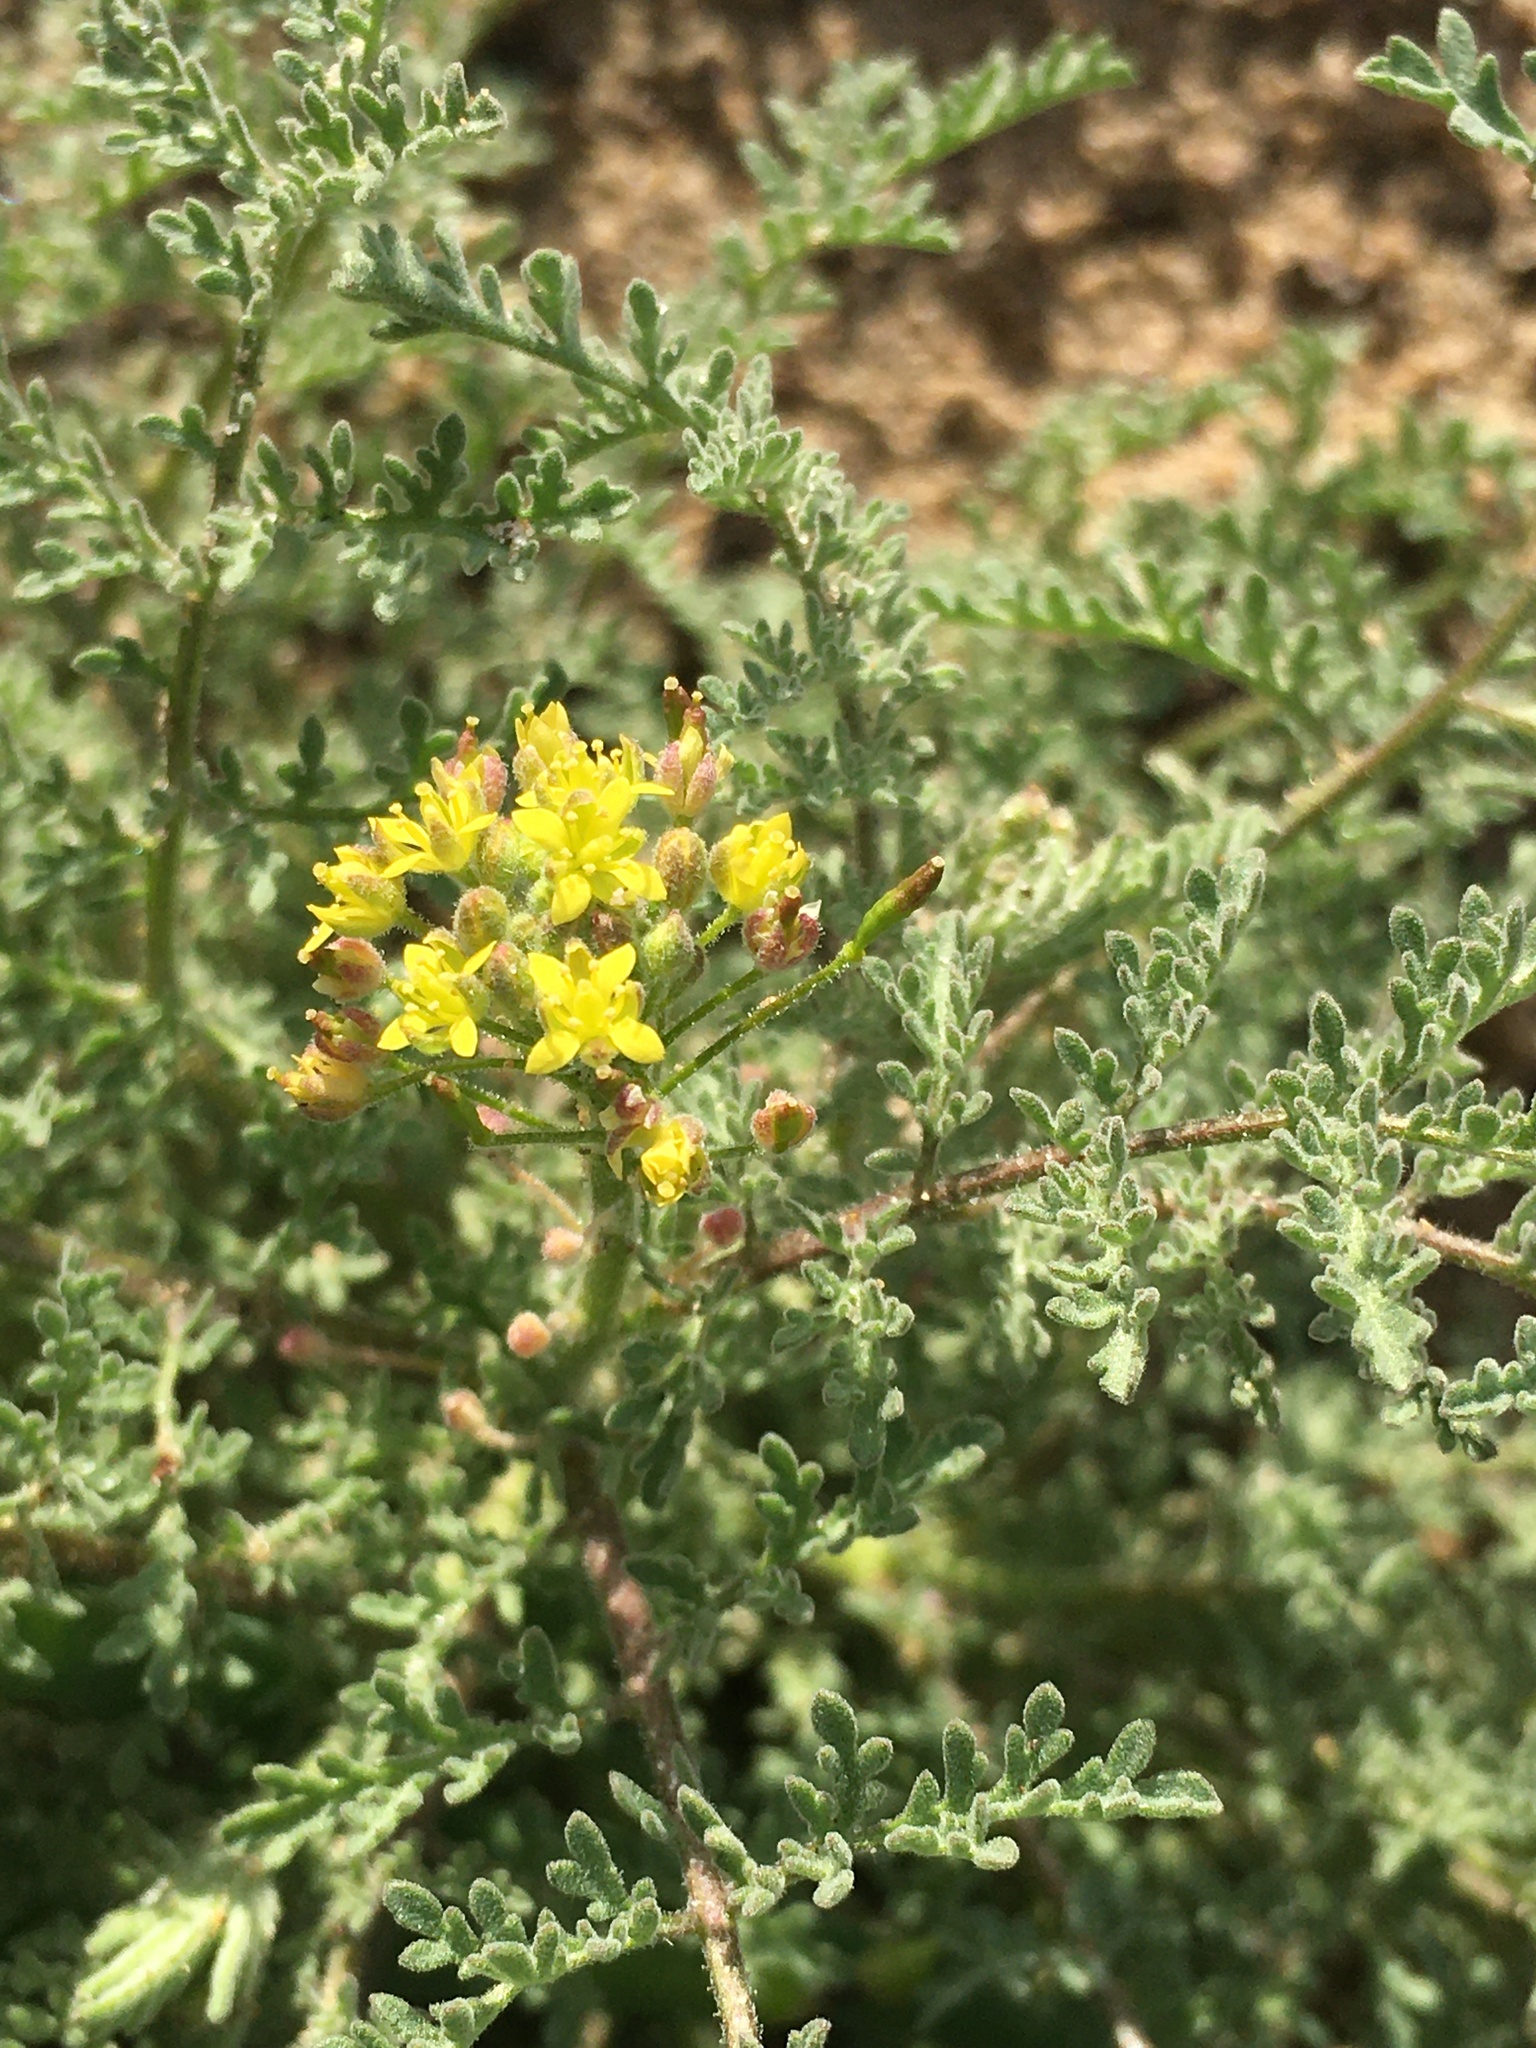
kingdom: Plantae
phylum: Tracheophyta
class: Magnoliopsida
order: Brassicales
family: Brassicaceae
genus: Descurainia
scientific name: Descurainia pinnata
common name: Western tansy mustard
